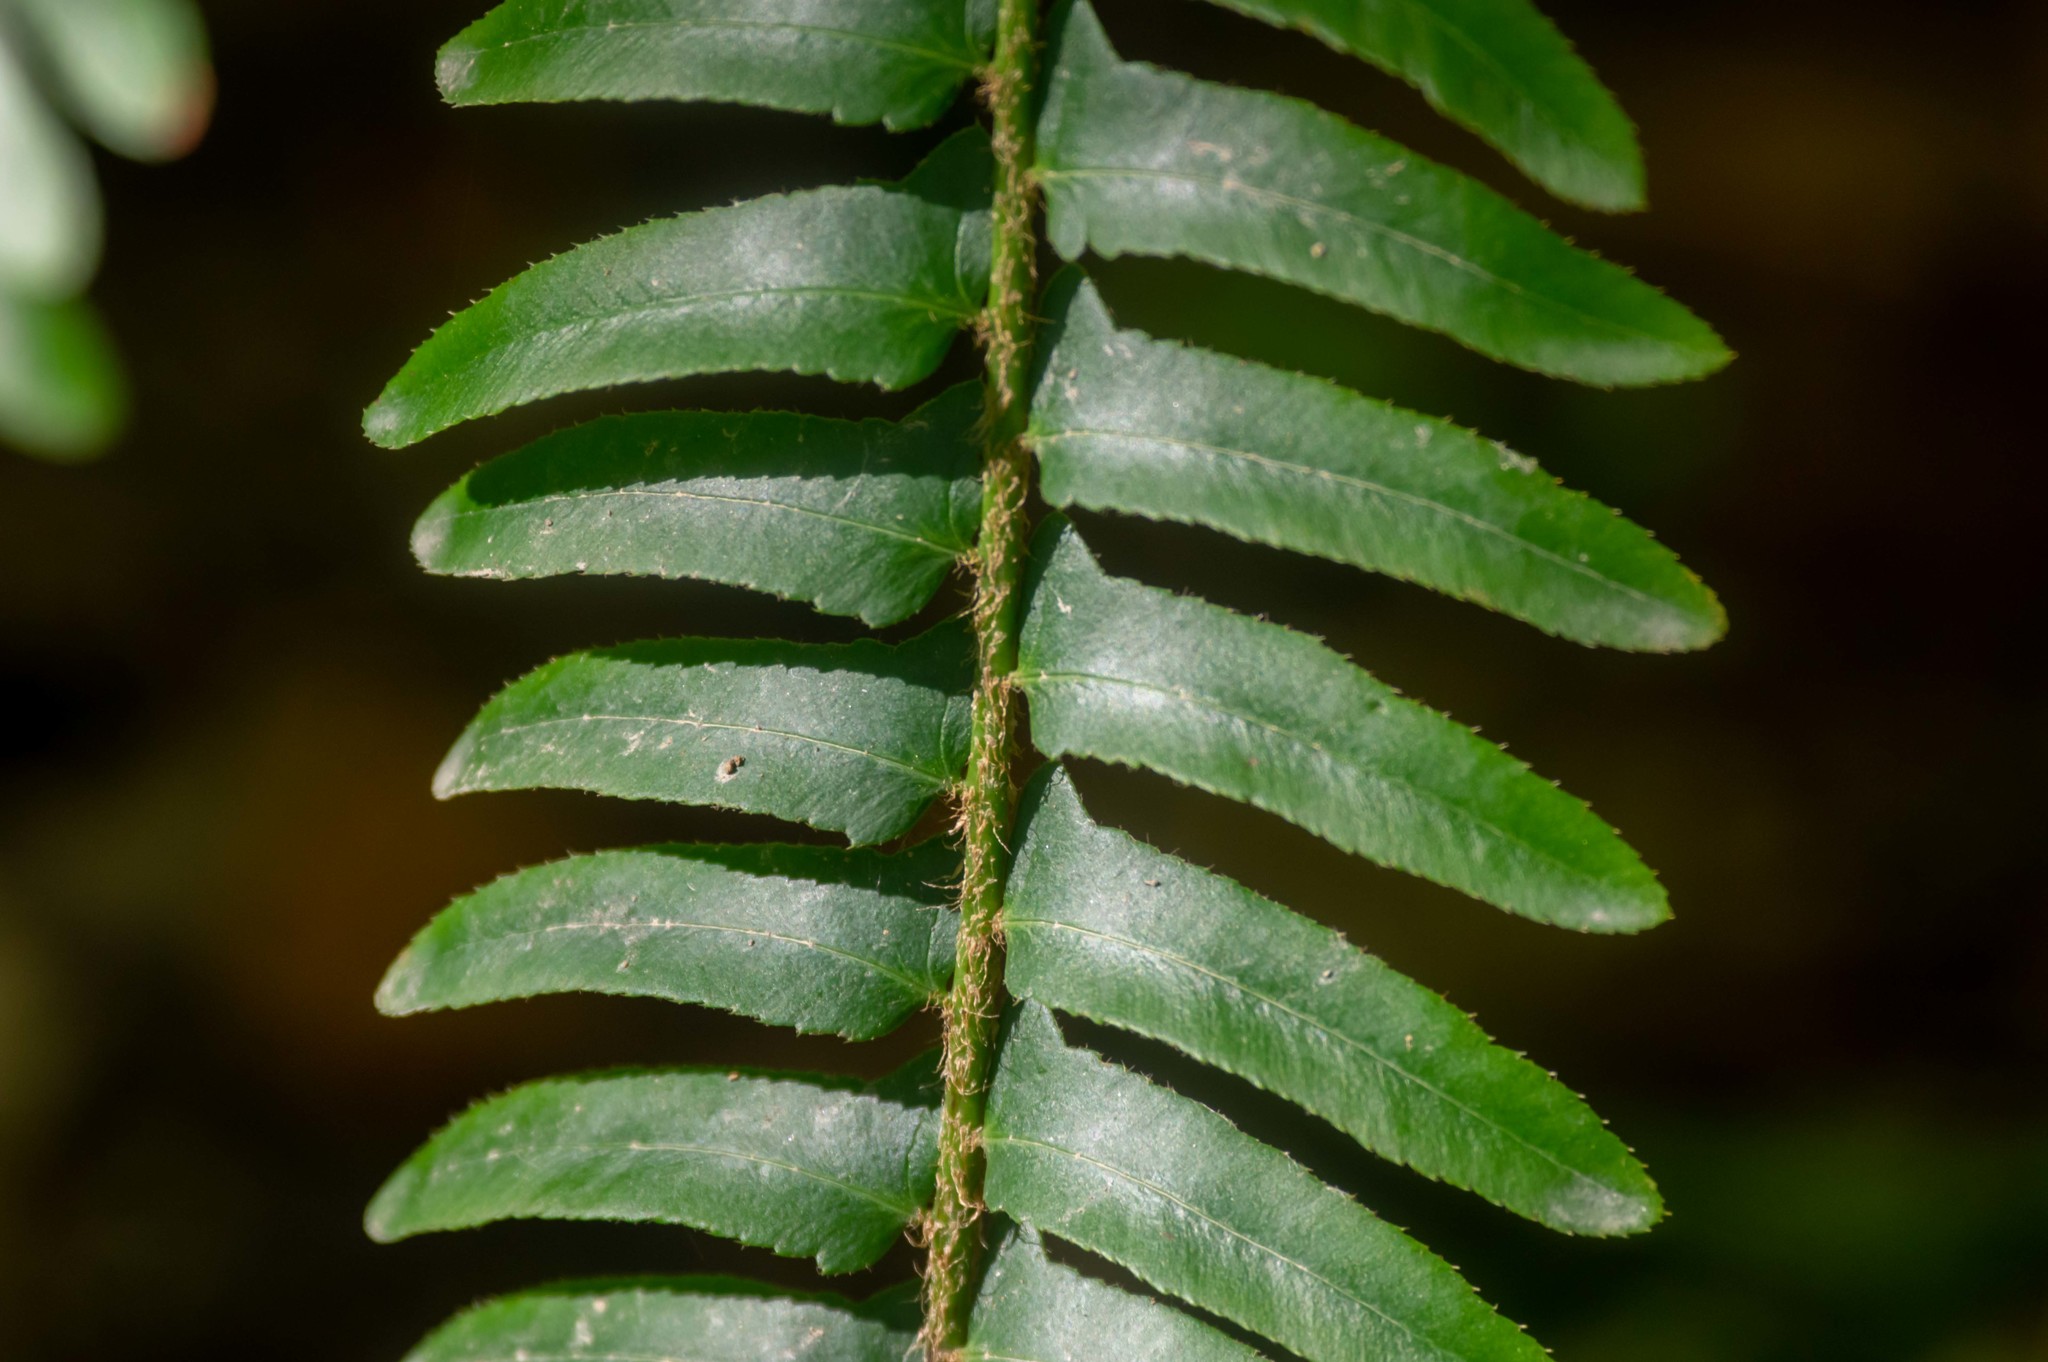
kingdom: Plantae
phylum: Tracheophyta
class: Polypodiopsida
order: Polypodiales
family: Dryopteridaceae
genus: Polystichum
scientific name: Polystichum acrostichoides
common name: Christmas fern
